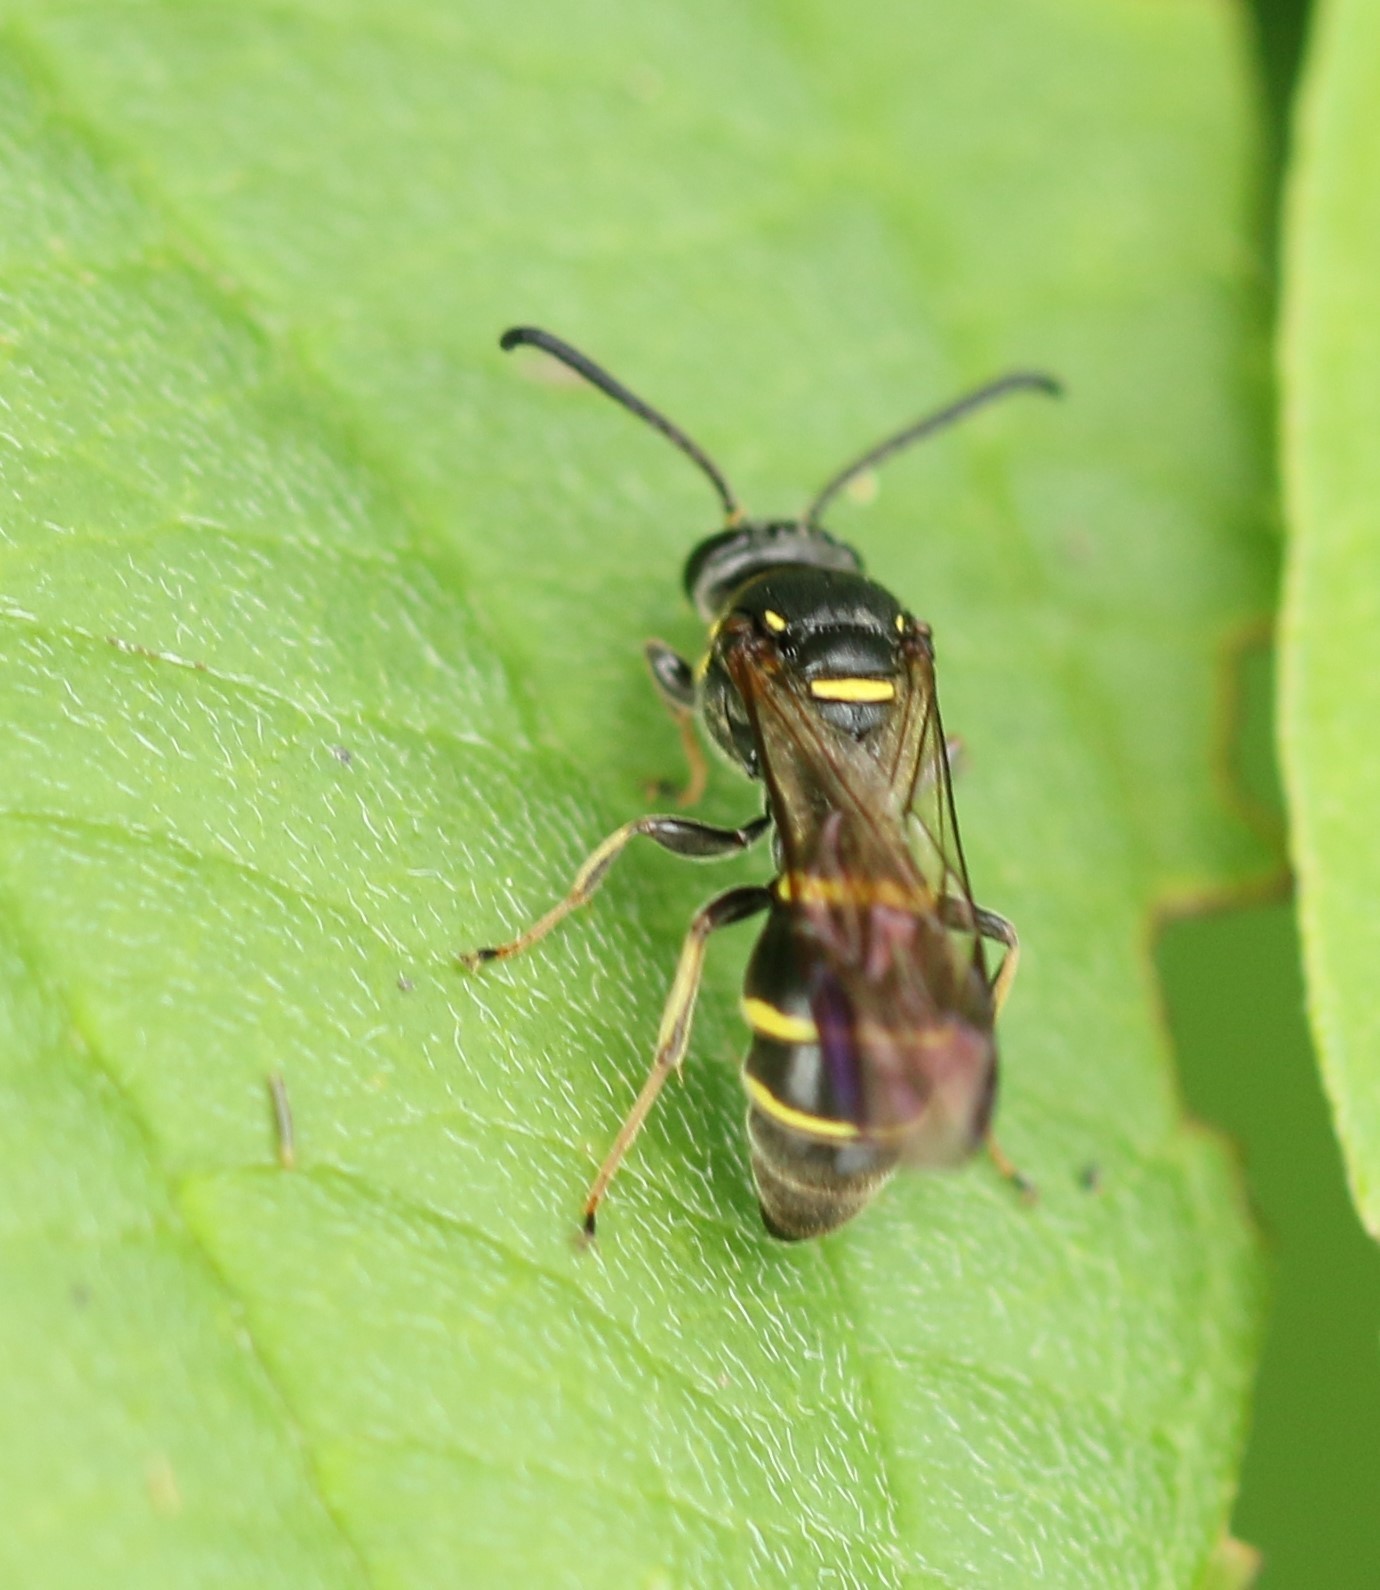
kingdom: Animalia
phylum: Arthropoda
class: Insecta
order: Hymenoptera
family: Crabronidae
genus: Argogorytes
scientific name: Argogorytes nigrifrons
